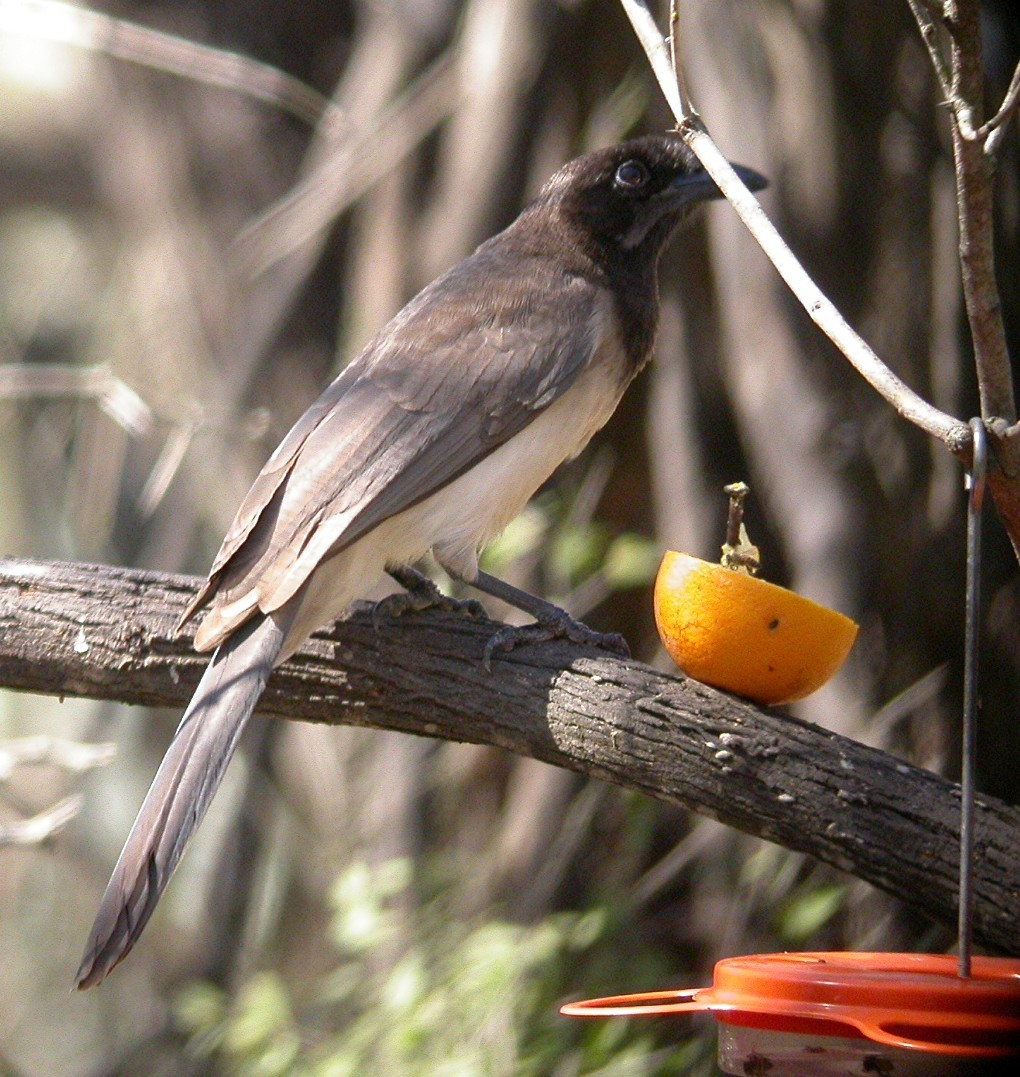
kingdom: Animalia
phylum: Chordata
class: Aves
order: Passeriformes
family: Corvidae
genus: Psilorhinus
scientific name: Psilorhinus morio
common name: Brown jay
